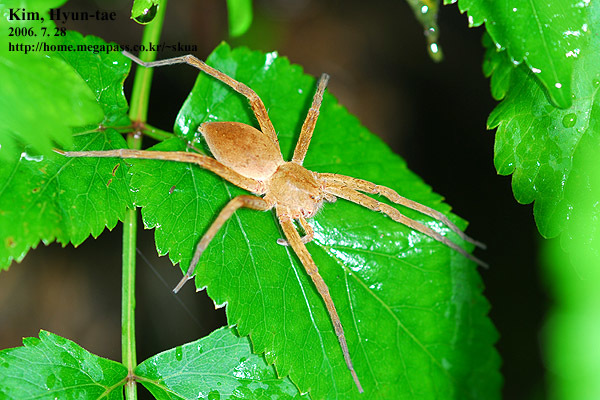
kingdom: Animalia
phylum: Arthropoda
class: Arachnida
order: Araneae
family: Pisauridae
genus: Dolomedes
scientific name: Dolomedes sulfureus
